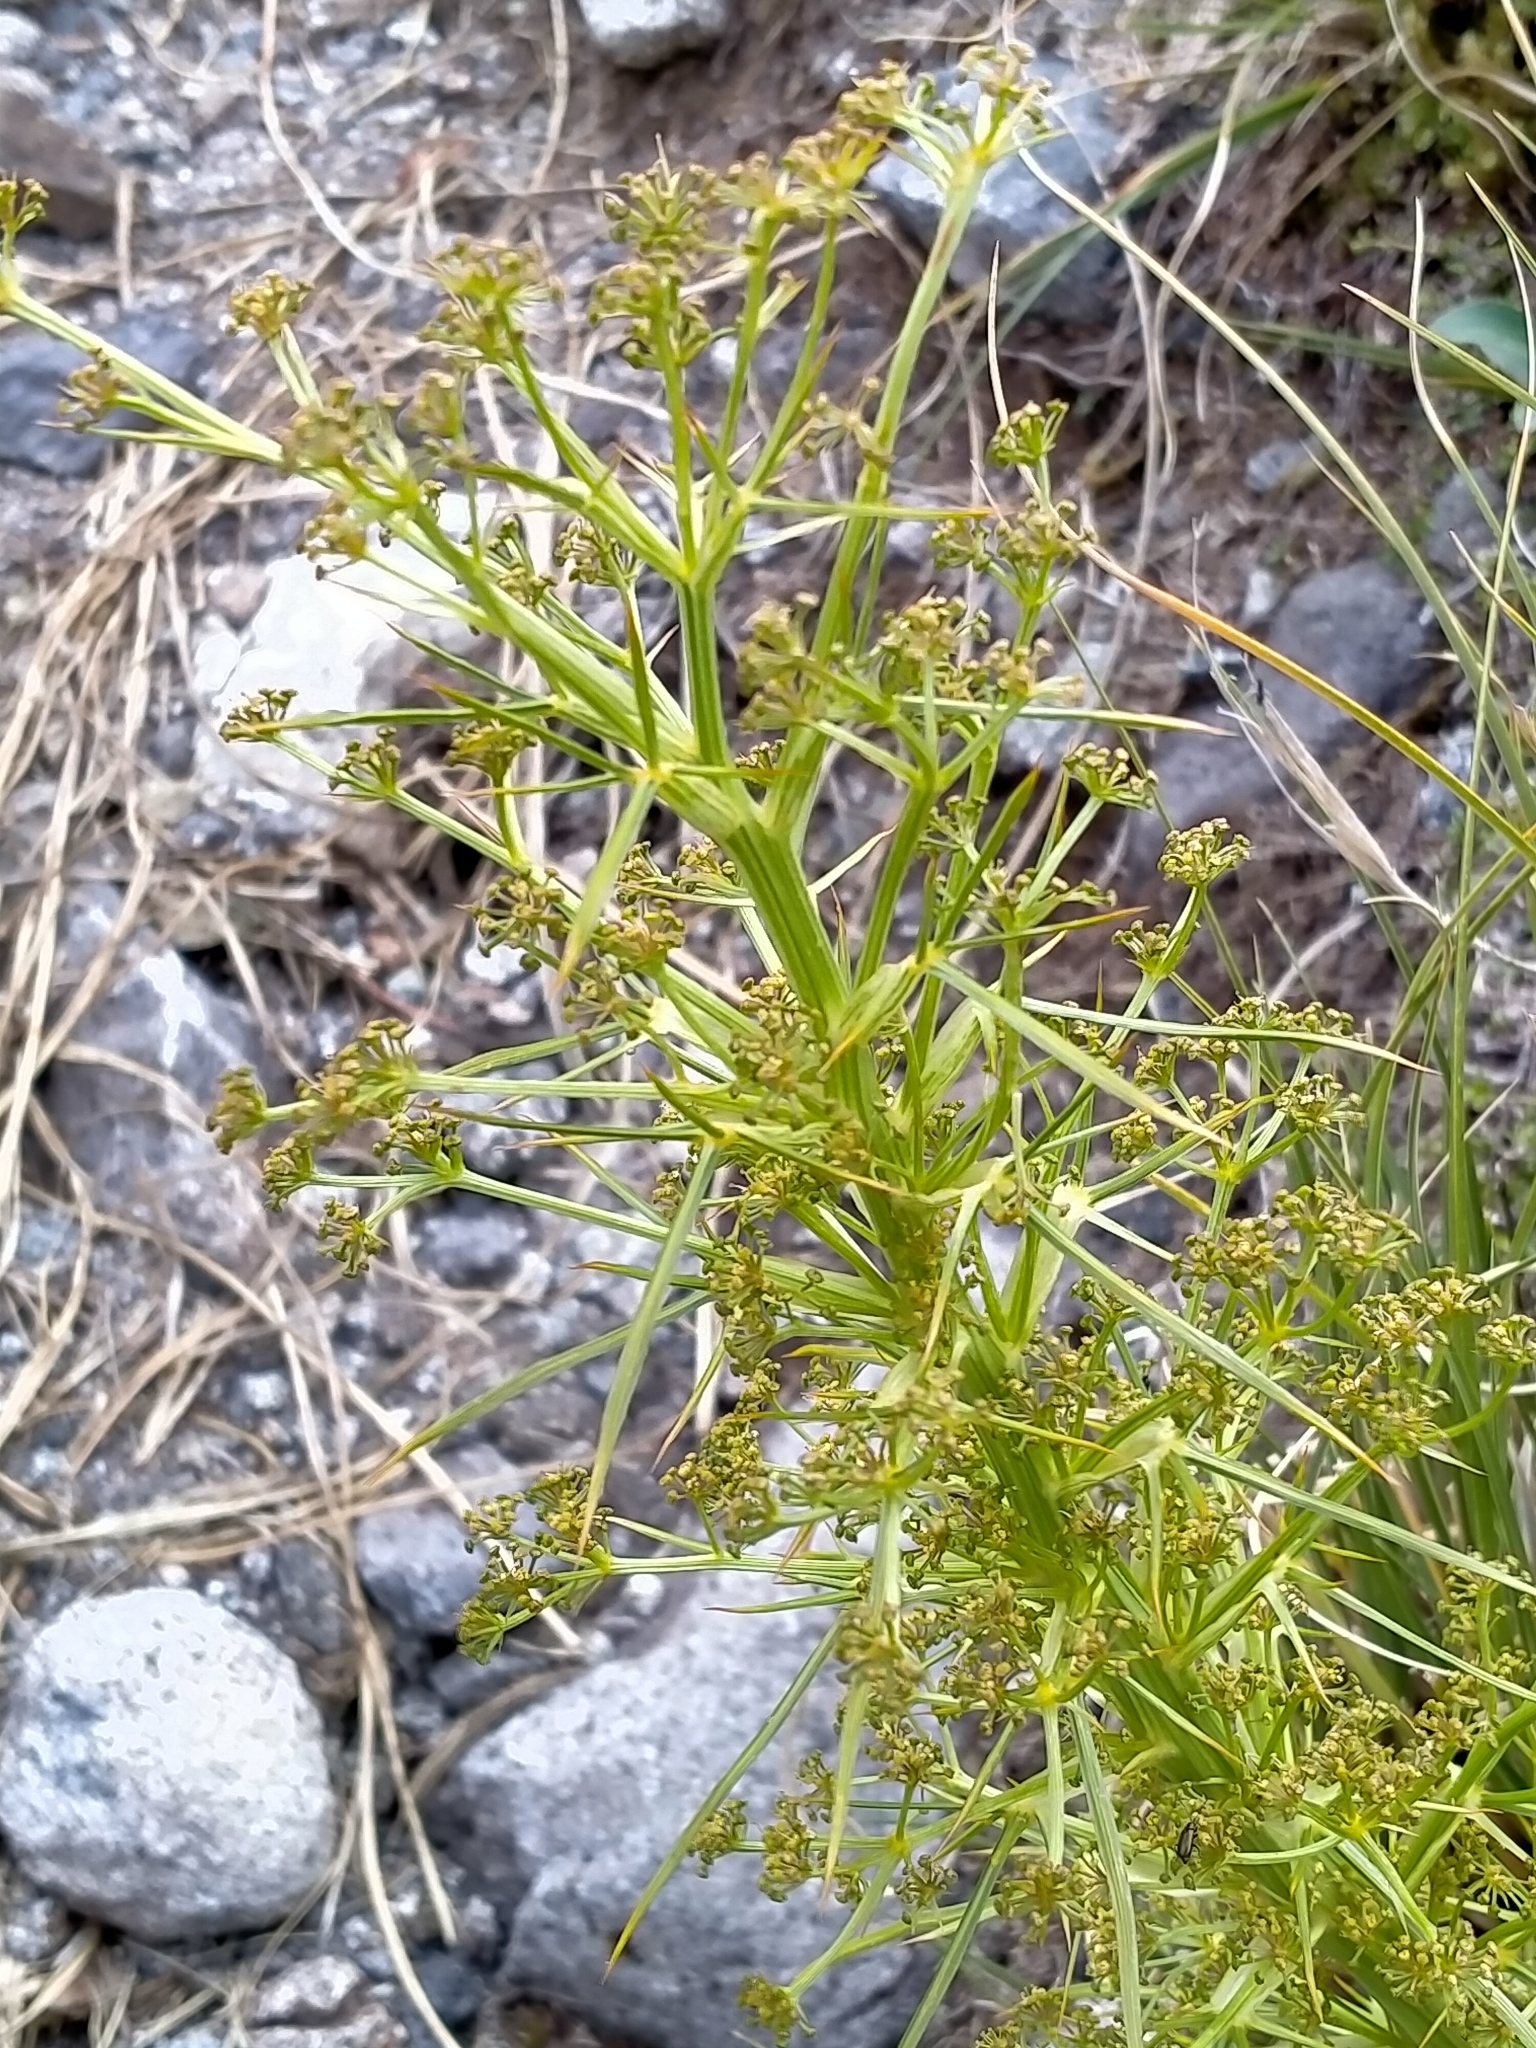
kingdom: Plantae
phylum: Tracheophyta
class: Magnoliopsida
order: Apiales
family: Apiaceae
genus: Aciphylla
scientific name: Aciphylla crenulata
